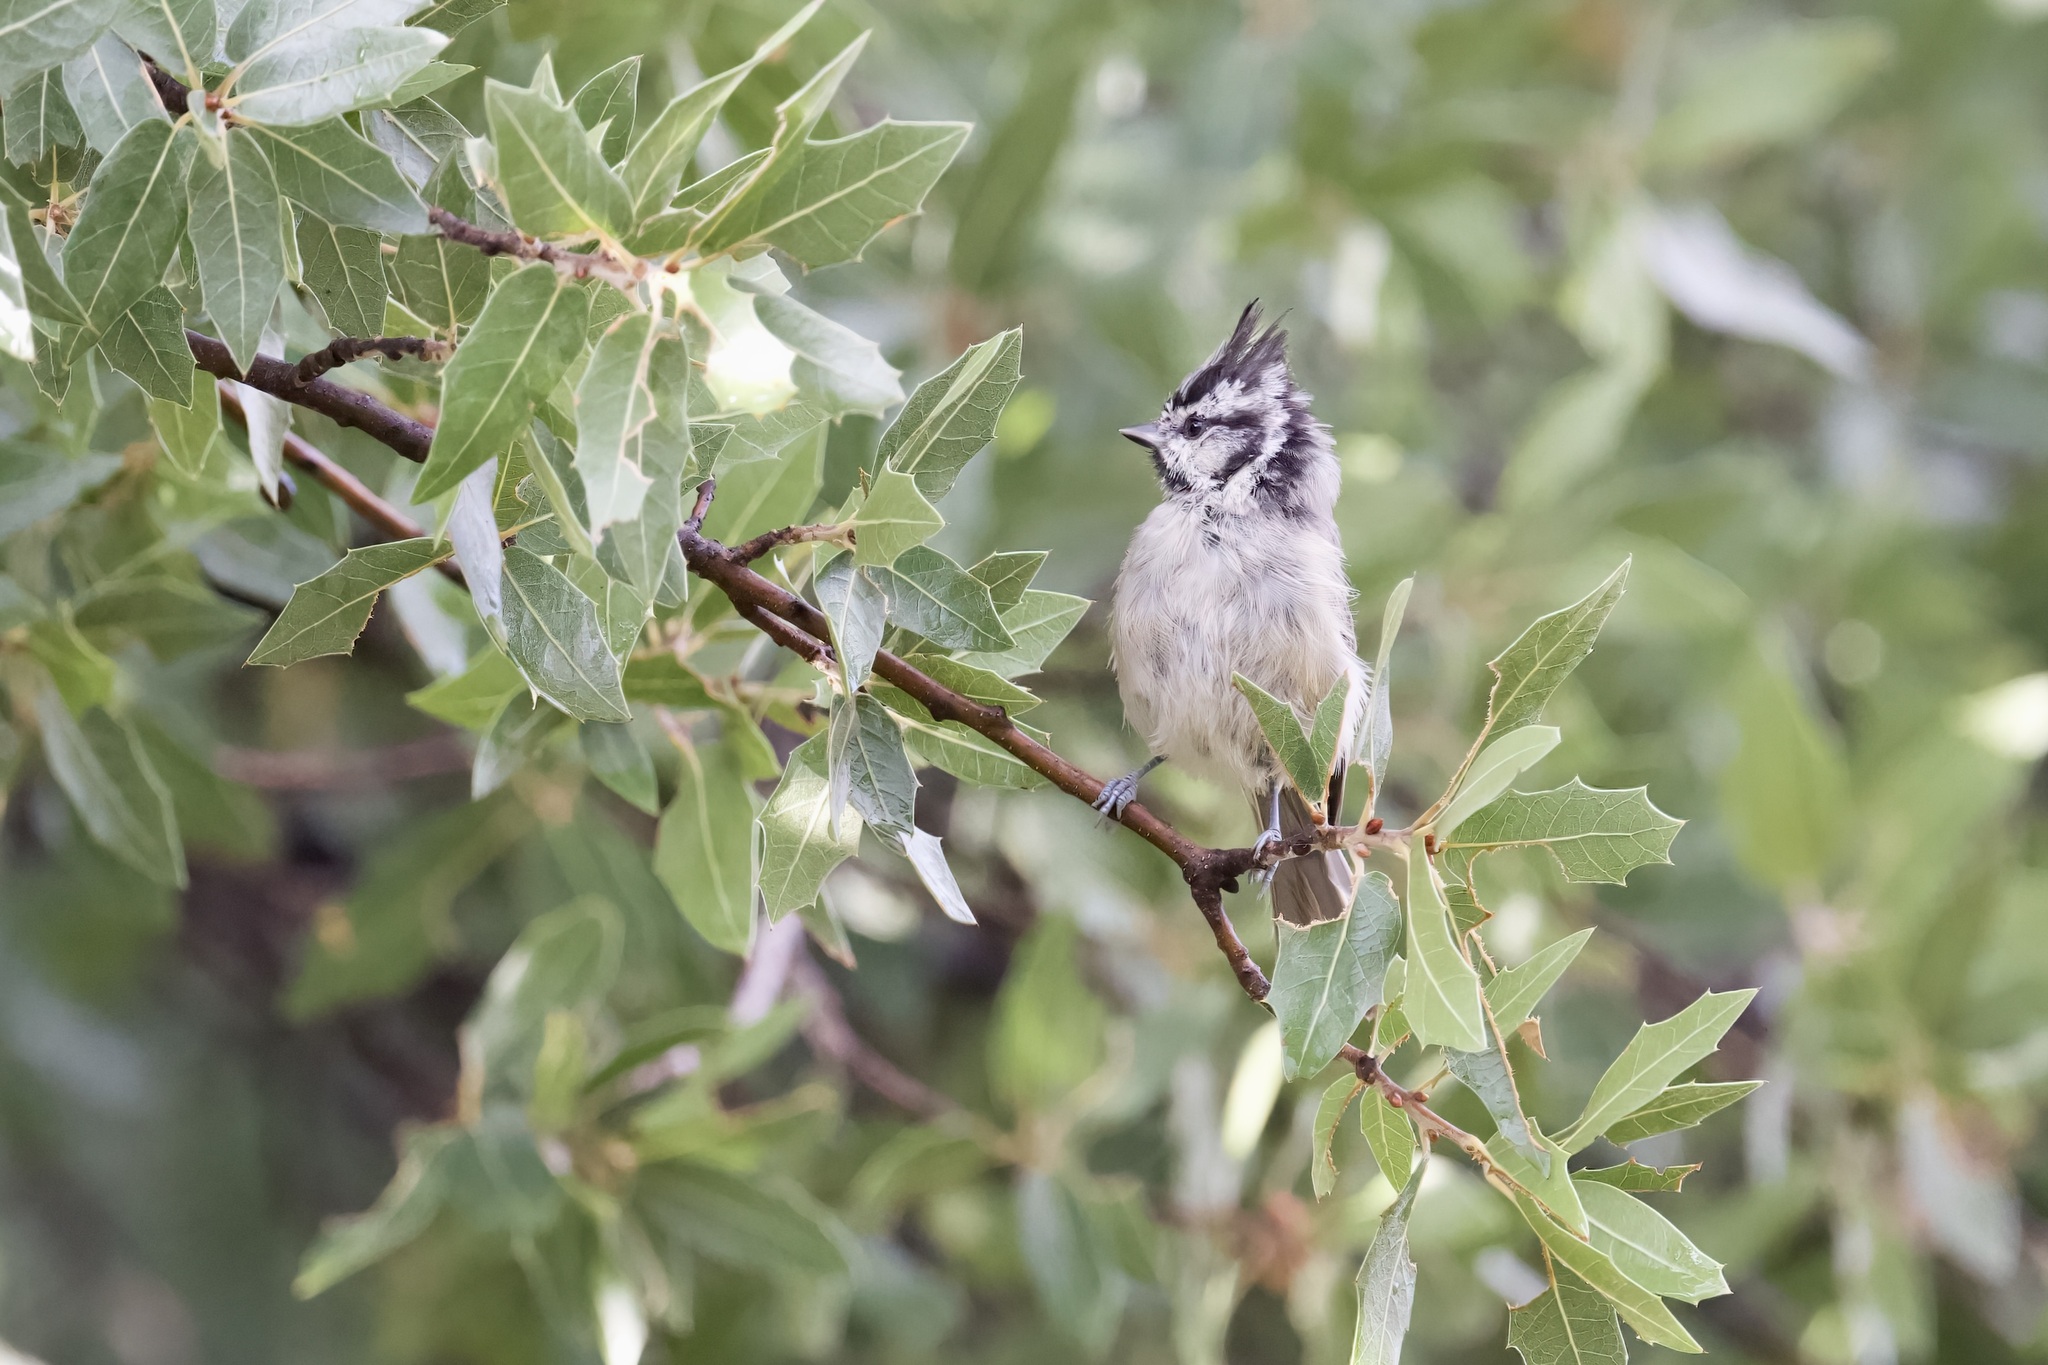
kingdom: Animalia
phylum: Chordata
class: Aves
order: Passeriformes
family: Paridae
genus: Baeolophus
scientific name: Baeolophus wollweberi
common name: Bridled titmouse
